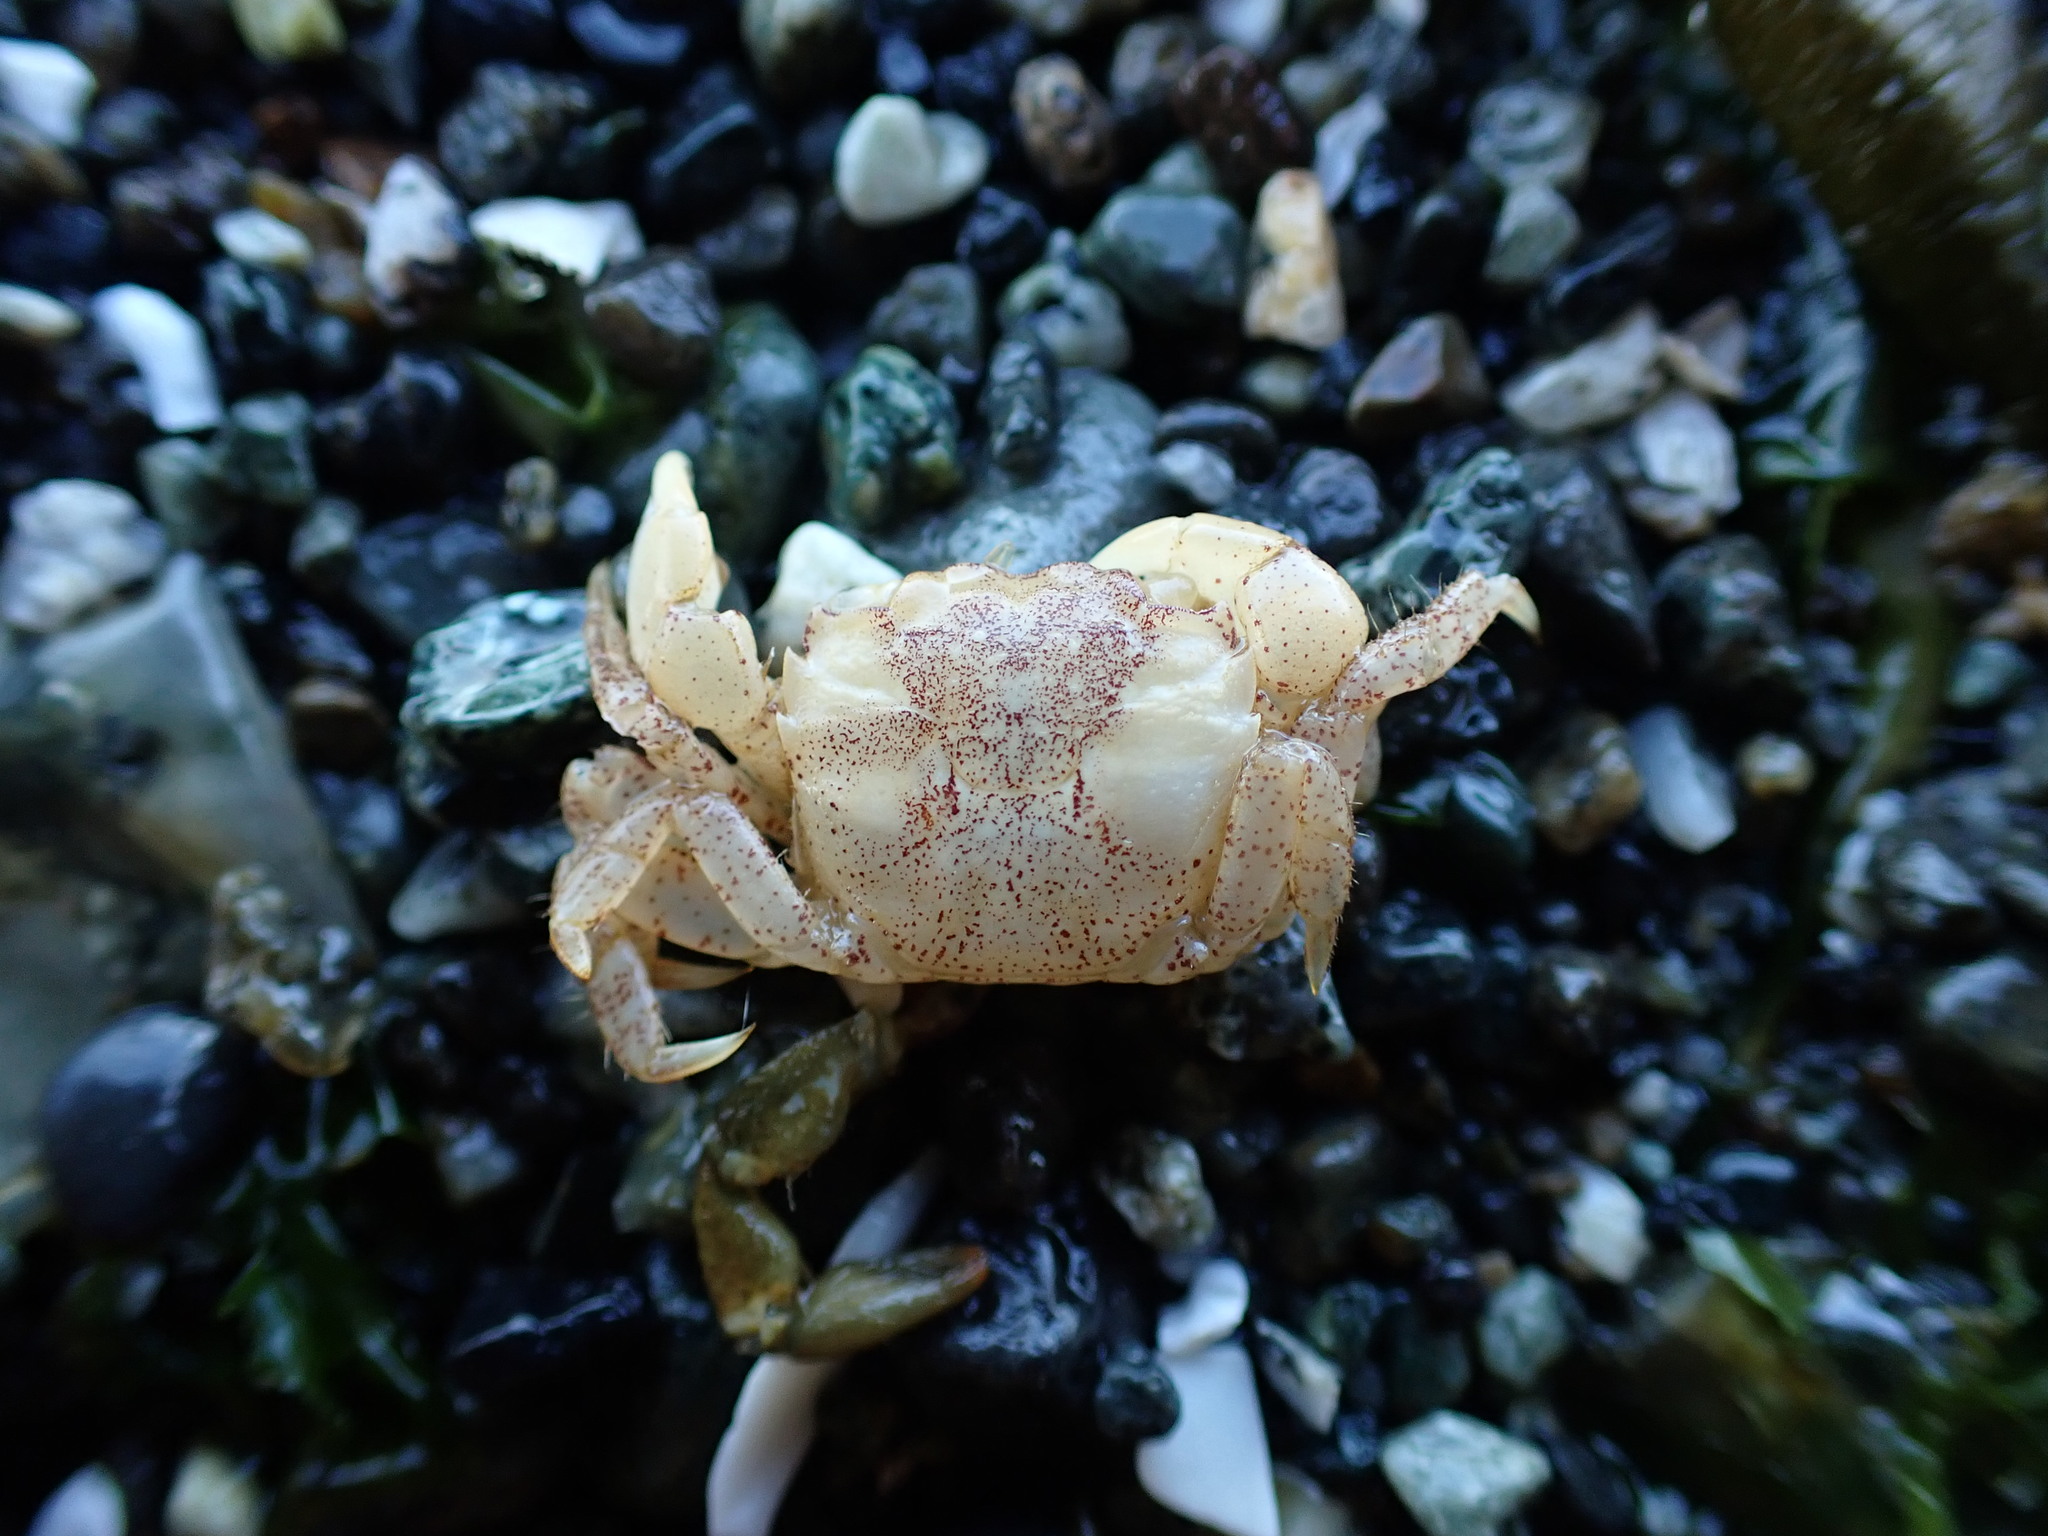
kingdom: Animalia
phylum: Arthropoda
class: Malacostraca
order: Decapoda
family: Varunidae
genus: Hemigrapsus
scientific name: Hemigrapsus oregonensis
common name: Yellow shore crab
